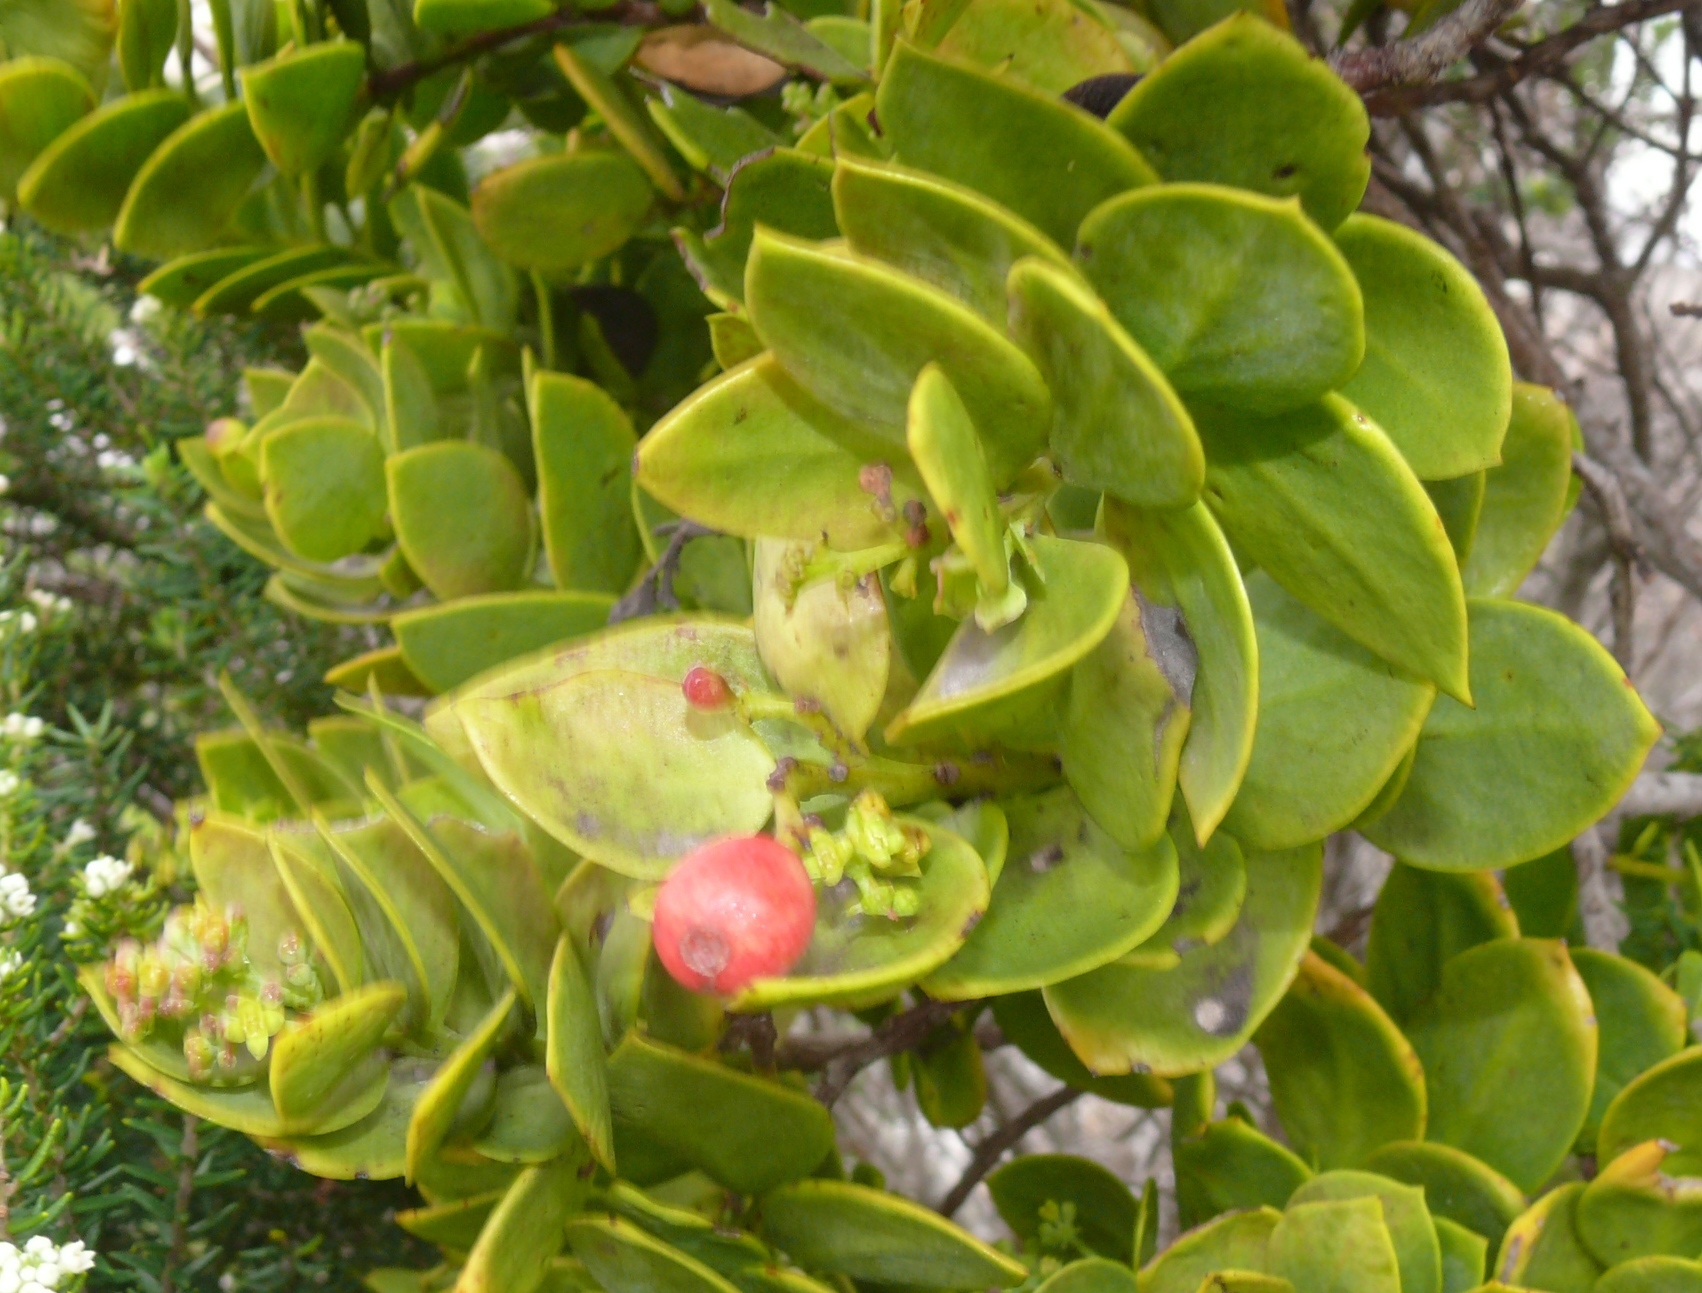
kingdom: Plantae
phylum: Tracheophyta
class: Magnoliopsida
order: Santalales
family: Santalaceae
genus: Osyris
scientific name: Osyris compressa
